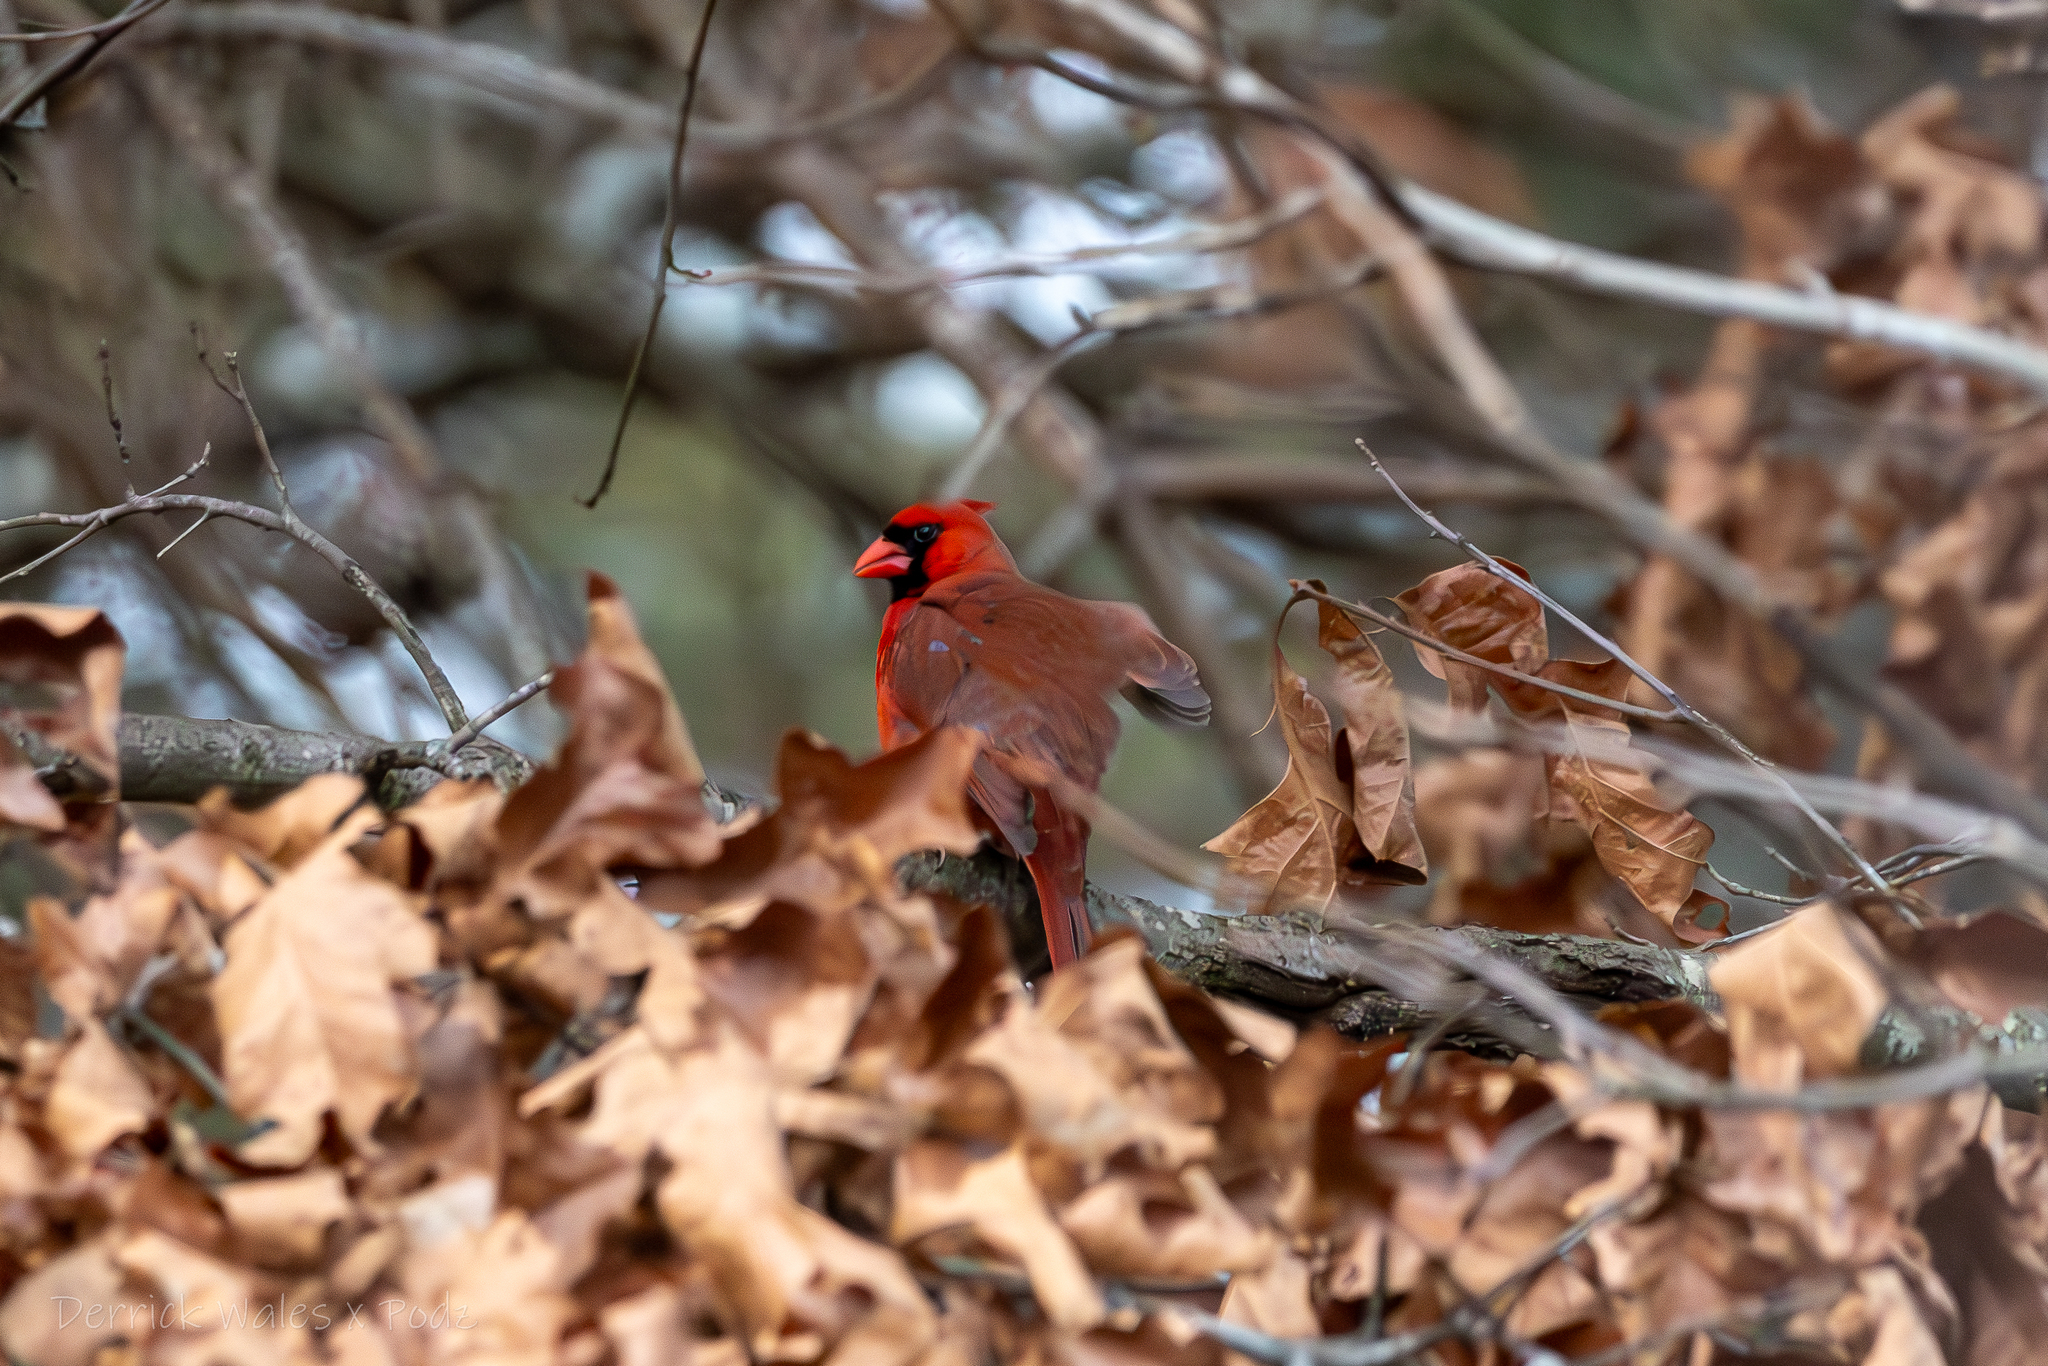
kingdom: Animalia
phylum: Chordata
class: Aves
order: Passeriformes
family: Cardinalidae
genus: Cardinalis
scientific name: Cardinalis cardinalis
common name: Northern cardinal
